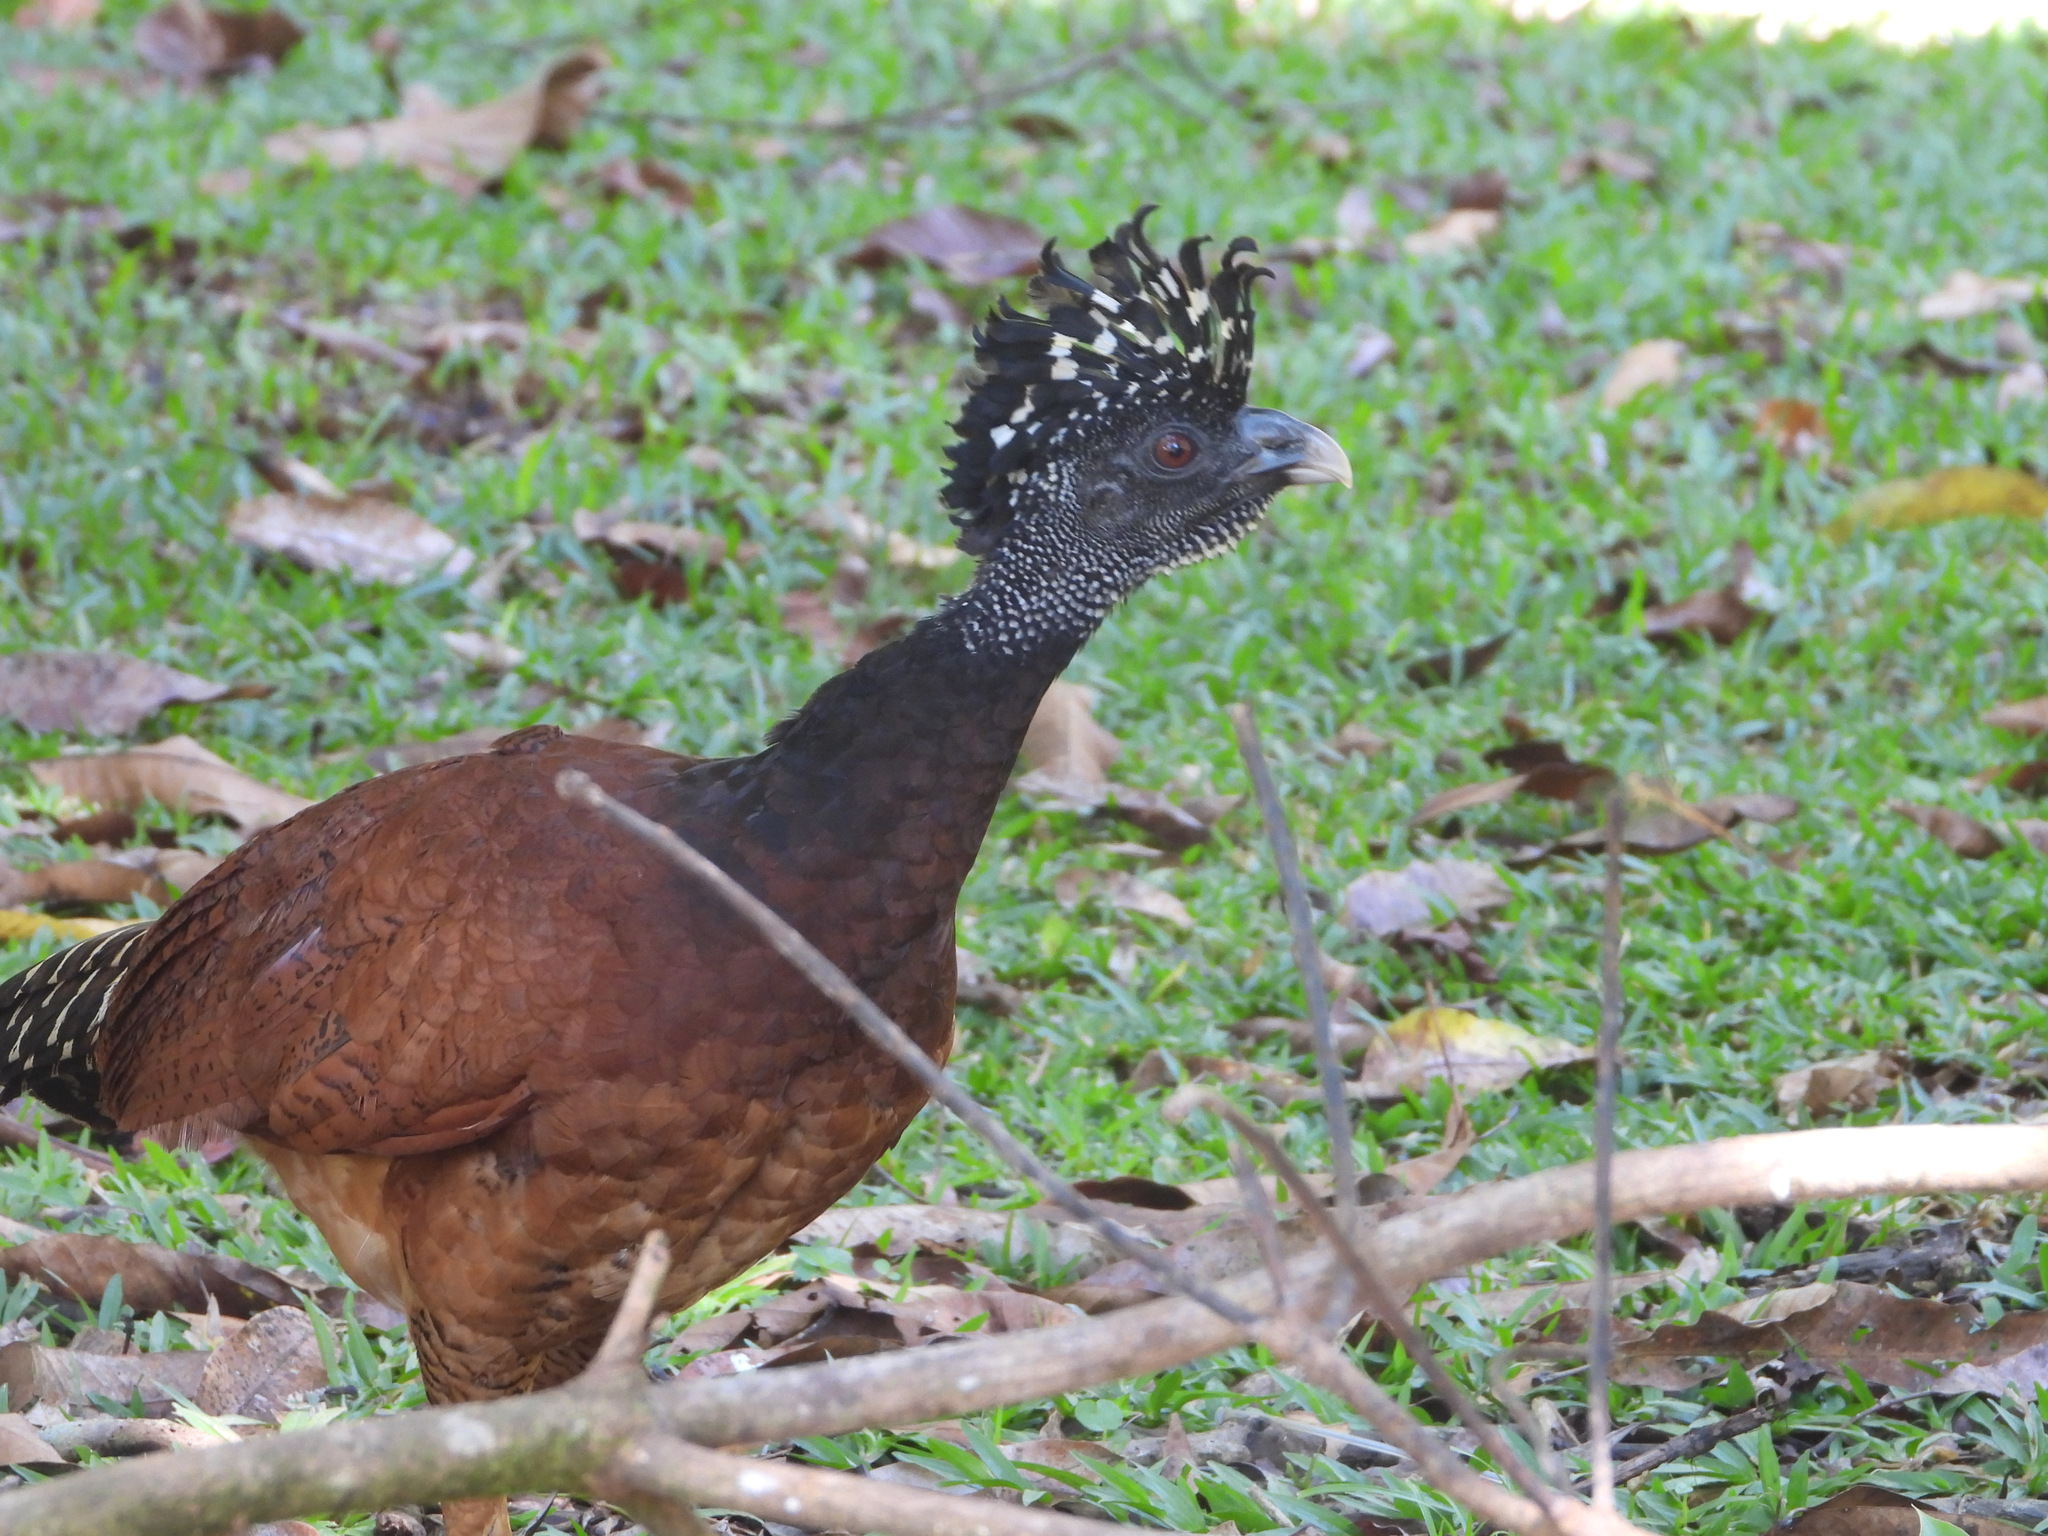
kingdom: Animalia
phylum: Chordata
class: Aves
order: Galliformes
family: Cracidae
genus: Crax
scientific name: Crax rubra
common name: Great curassow
